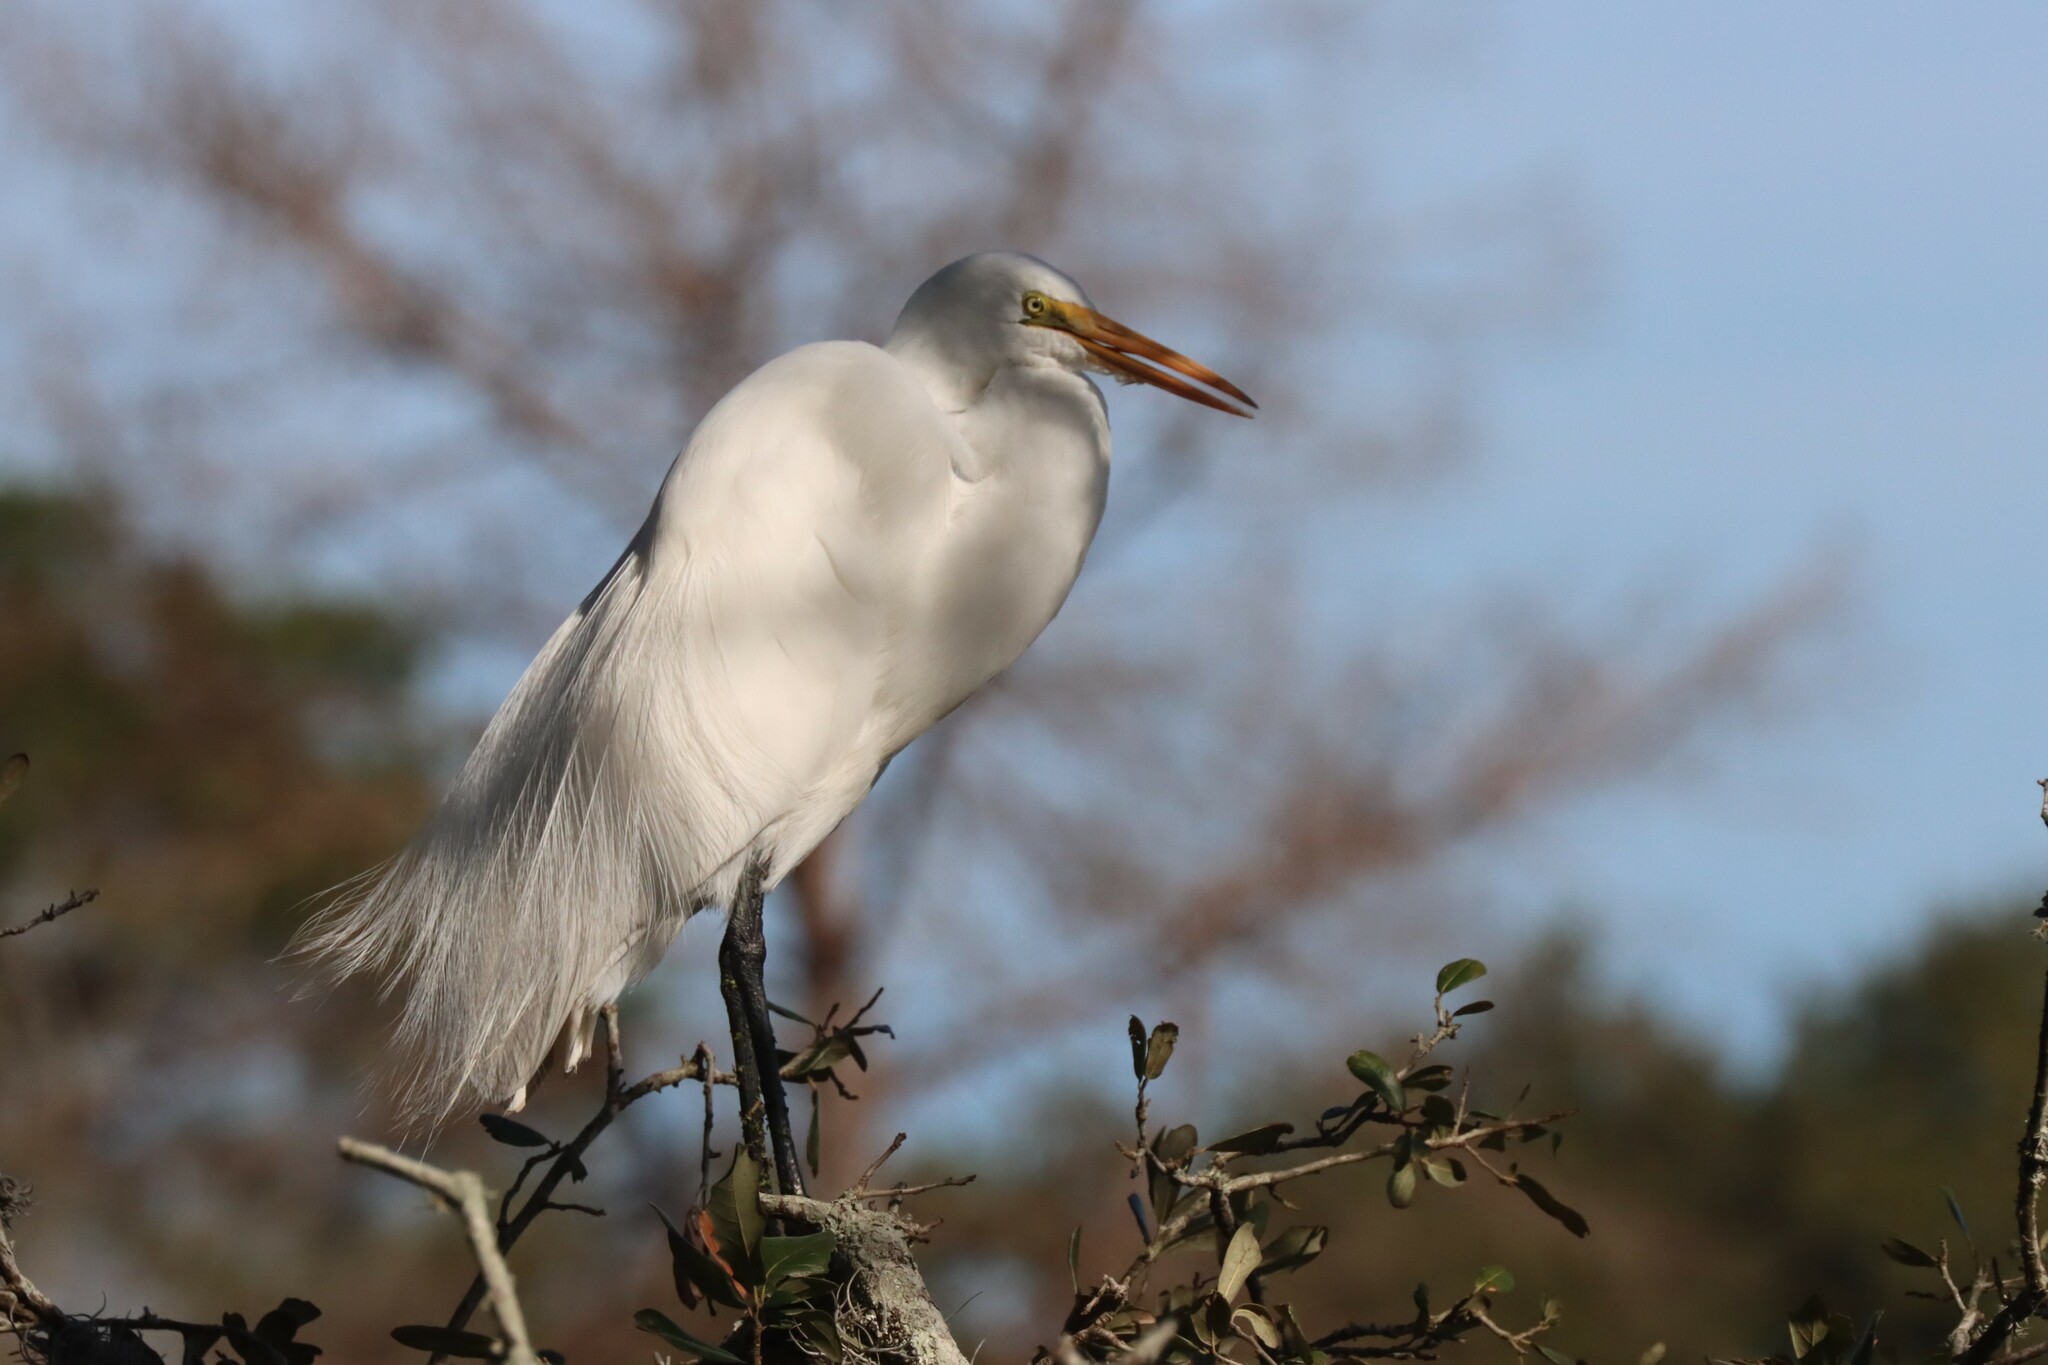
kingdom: Animalia
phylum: Chordata
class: Aves
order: Pelecaniformes
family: Ardeidae
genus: Ardea
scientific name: Ardea alba
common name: Great egret
